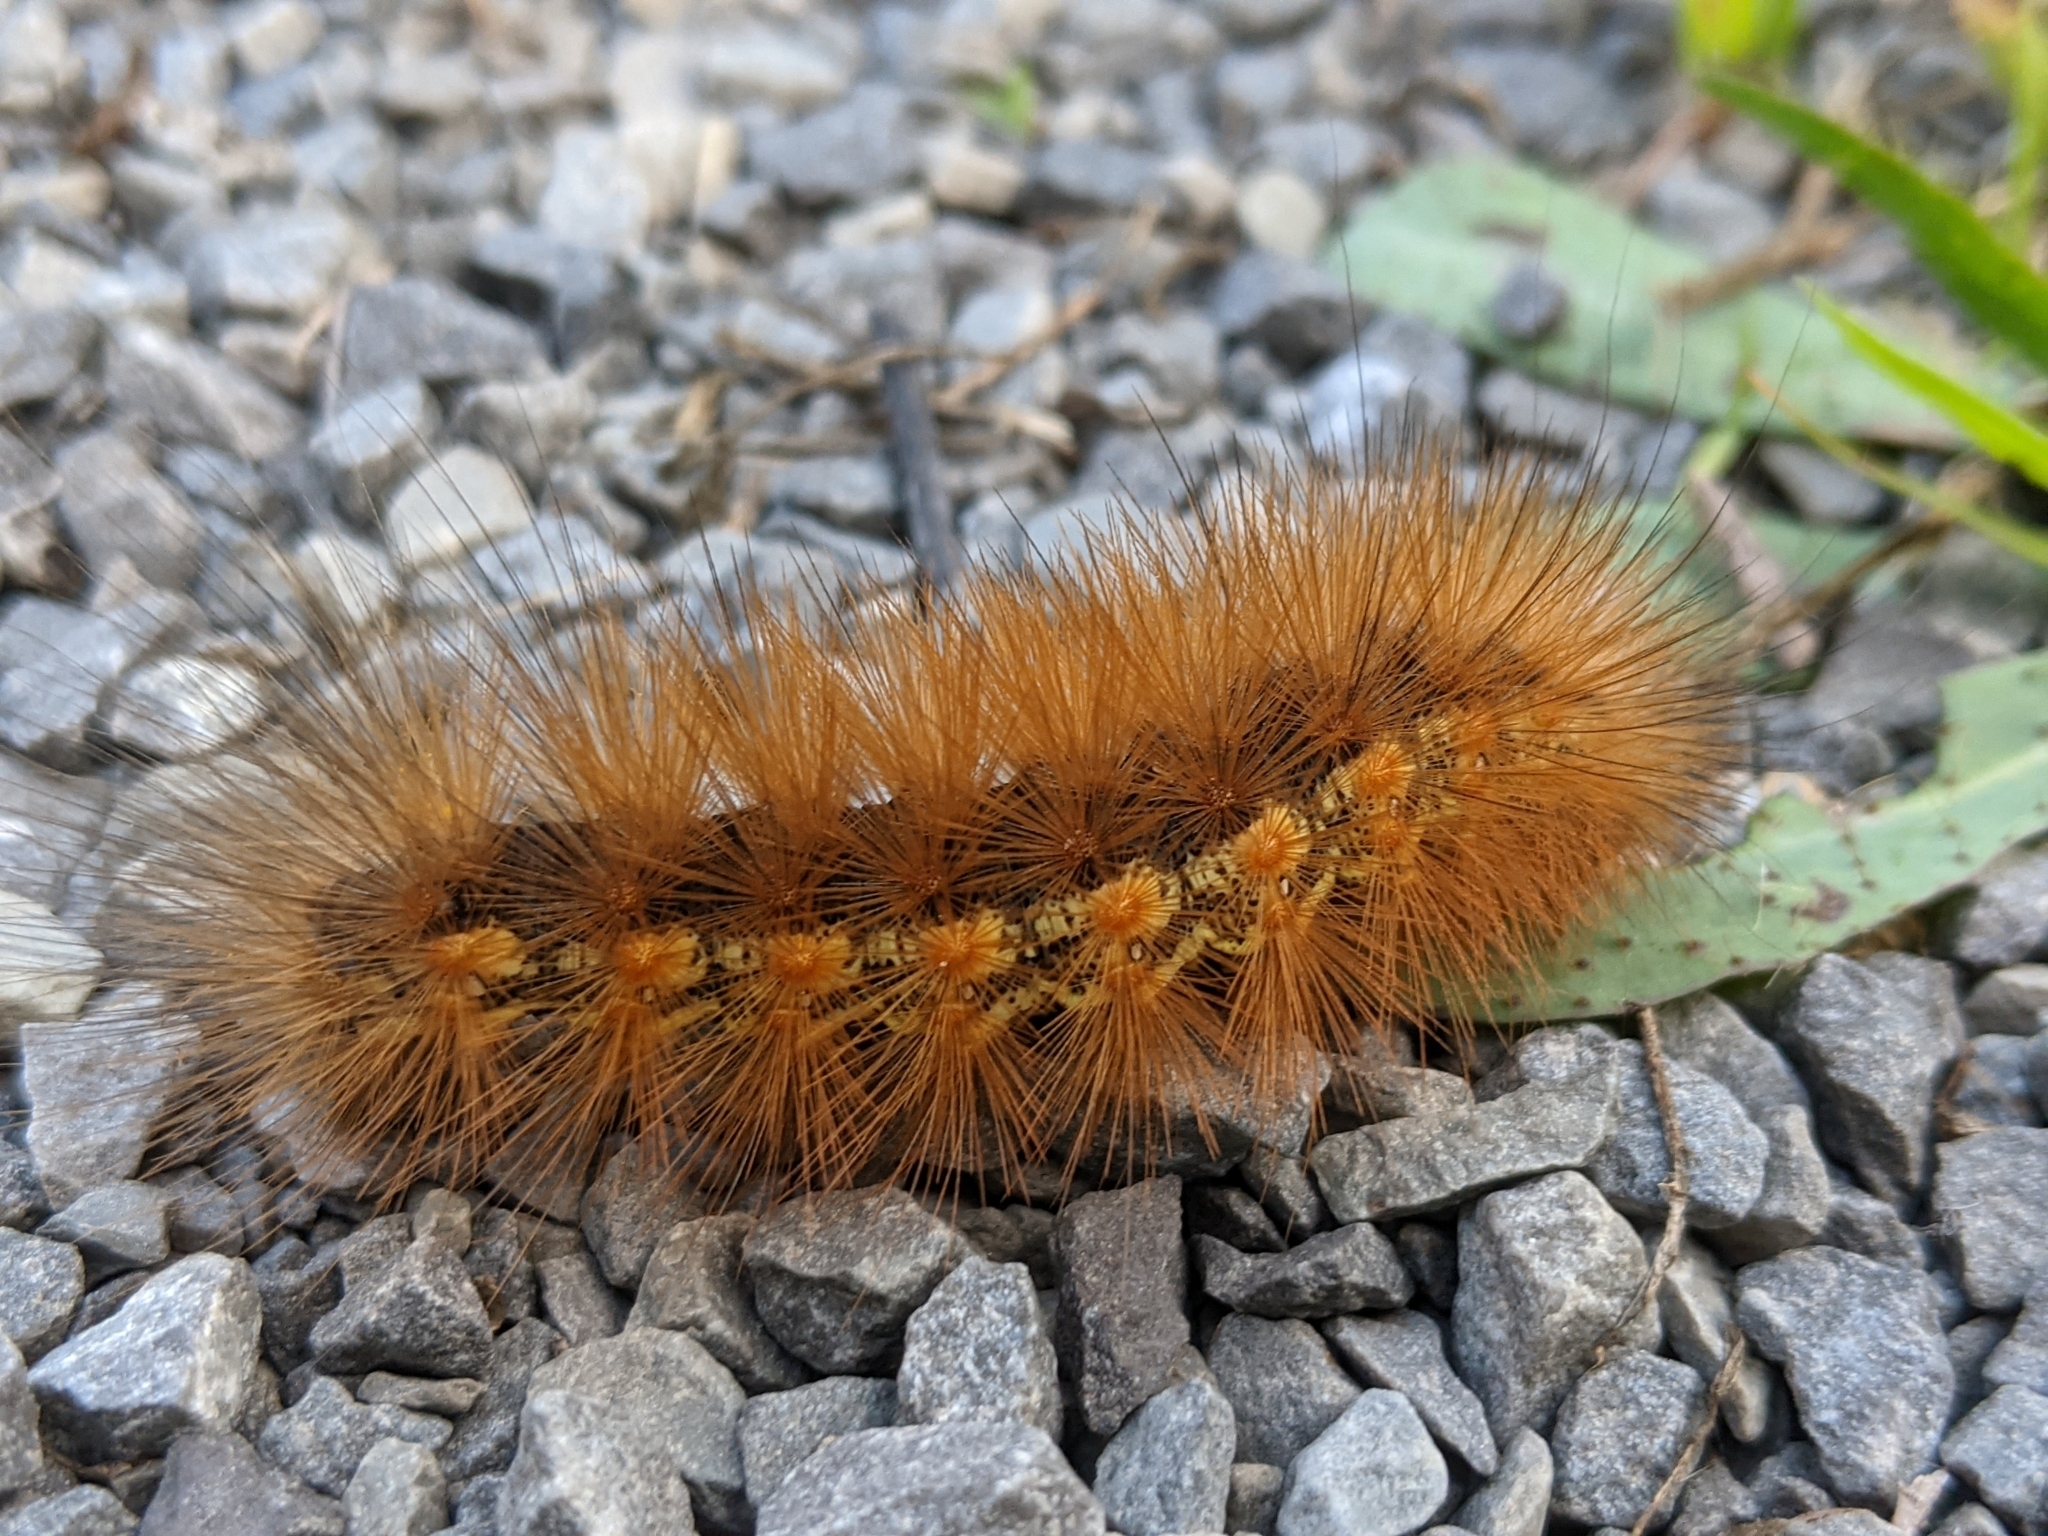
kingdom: Animalia
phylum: Arthropoda
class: Insecta
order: Lepidoptera
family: Erebidae
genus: Spilosoma
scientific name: Spilosoma virginica
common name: Virginia tiger moth
